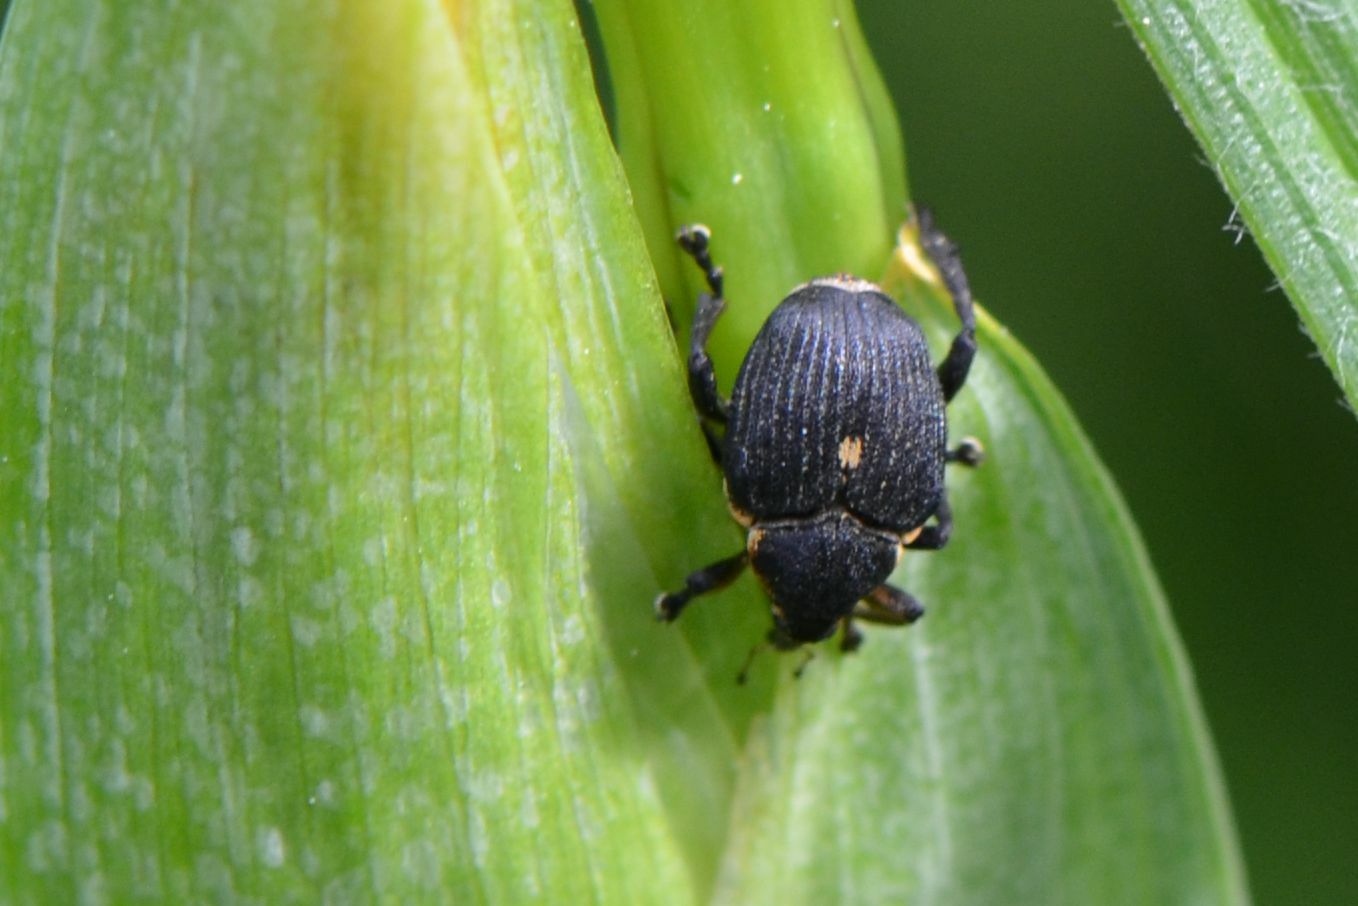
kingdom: Animalia
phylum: Arthropoda
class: Insecta
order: Coleoptera
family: Curculionidae
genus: Mononychus
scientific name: Mononychus punctumalbum
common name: Iris weevil
